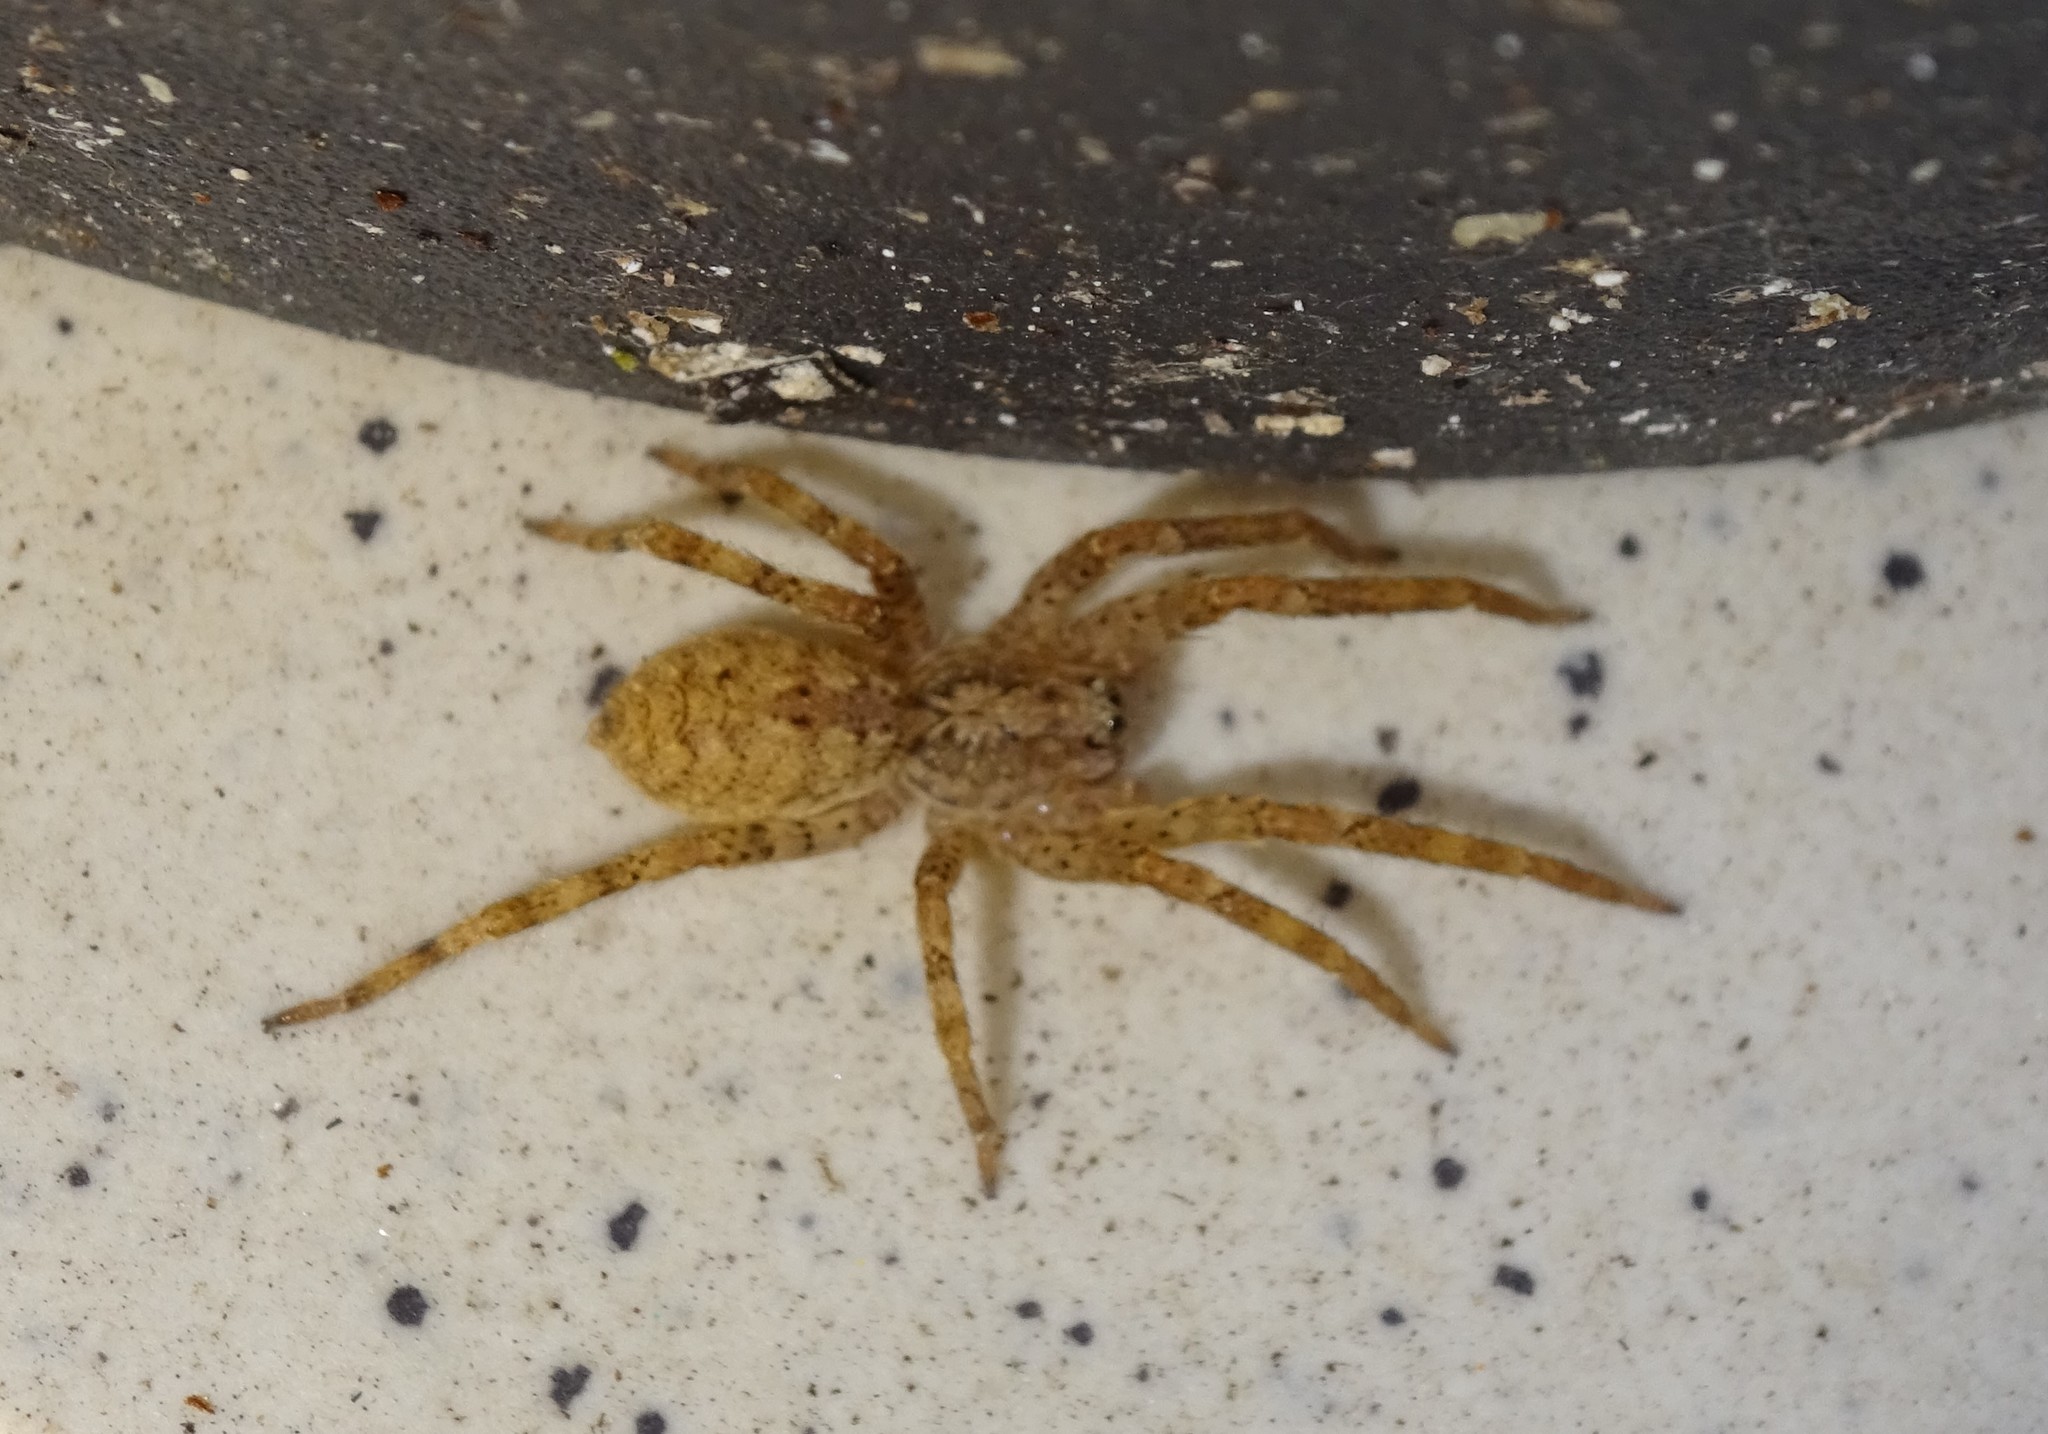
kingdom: Animalia
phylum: Arthropoda
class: Arachnida
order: Araneae
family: Zoropsidae
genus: Zoropsis
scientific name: Zoropsis spinimana
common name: Zoropsid spider
